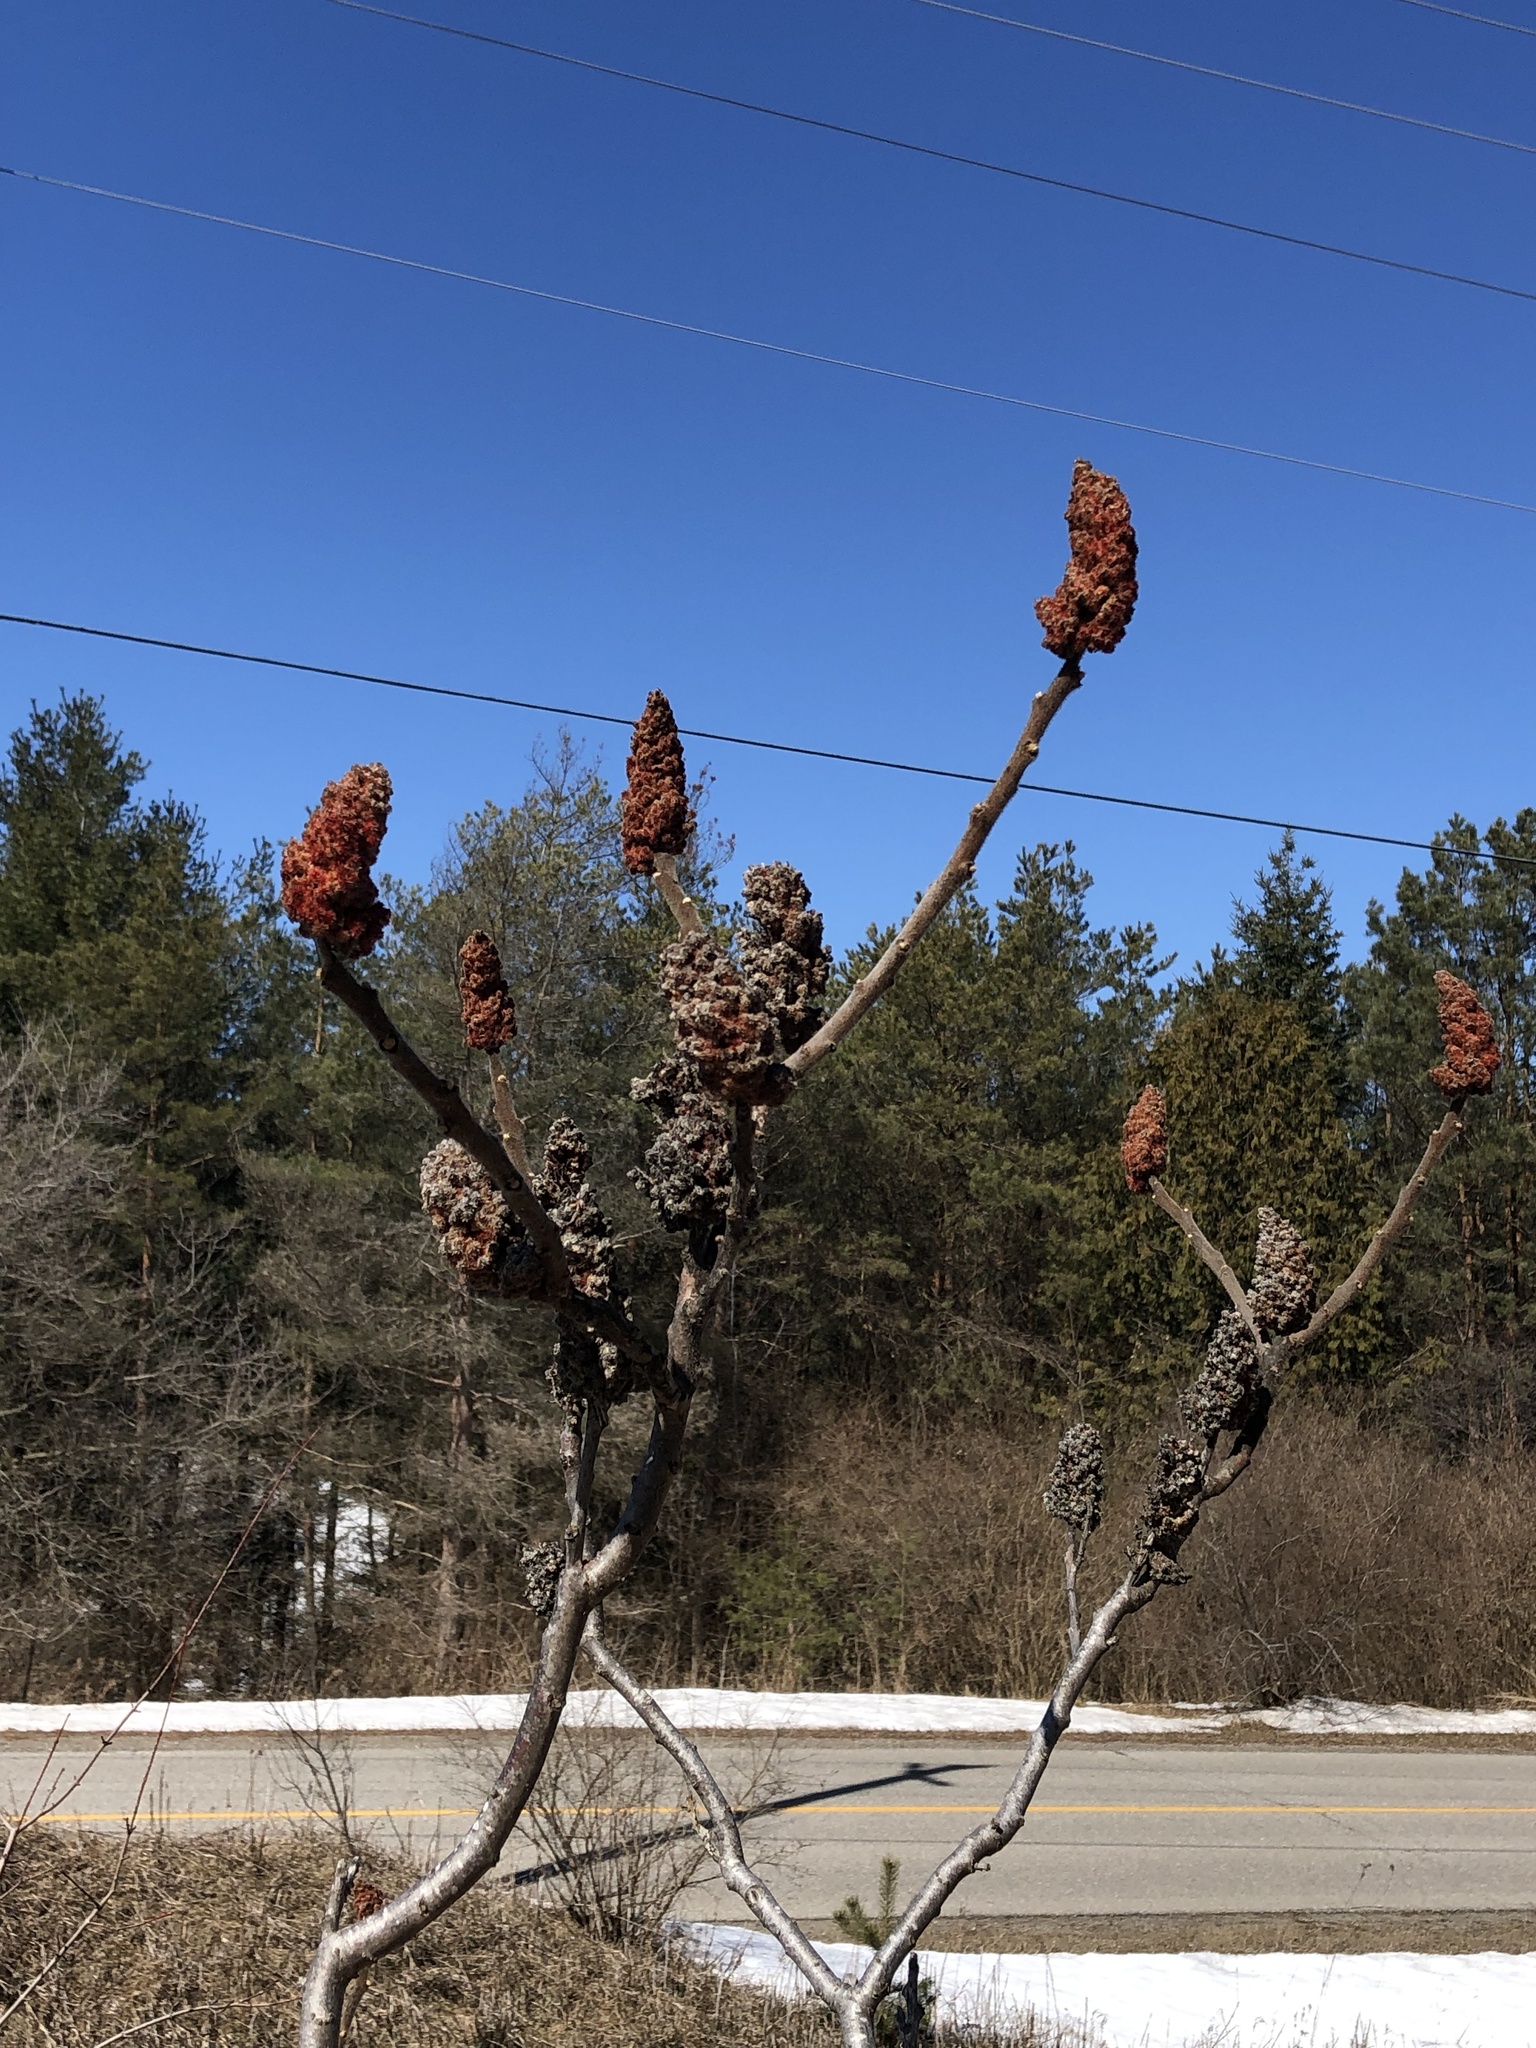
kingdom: Plantae
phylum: Tracheophyta
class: Magnoliopsida
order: Sapindales
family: Anacardiaceae
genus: Rhus
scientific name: Rhus typhina
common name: Staghorn sumac
